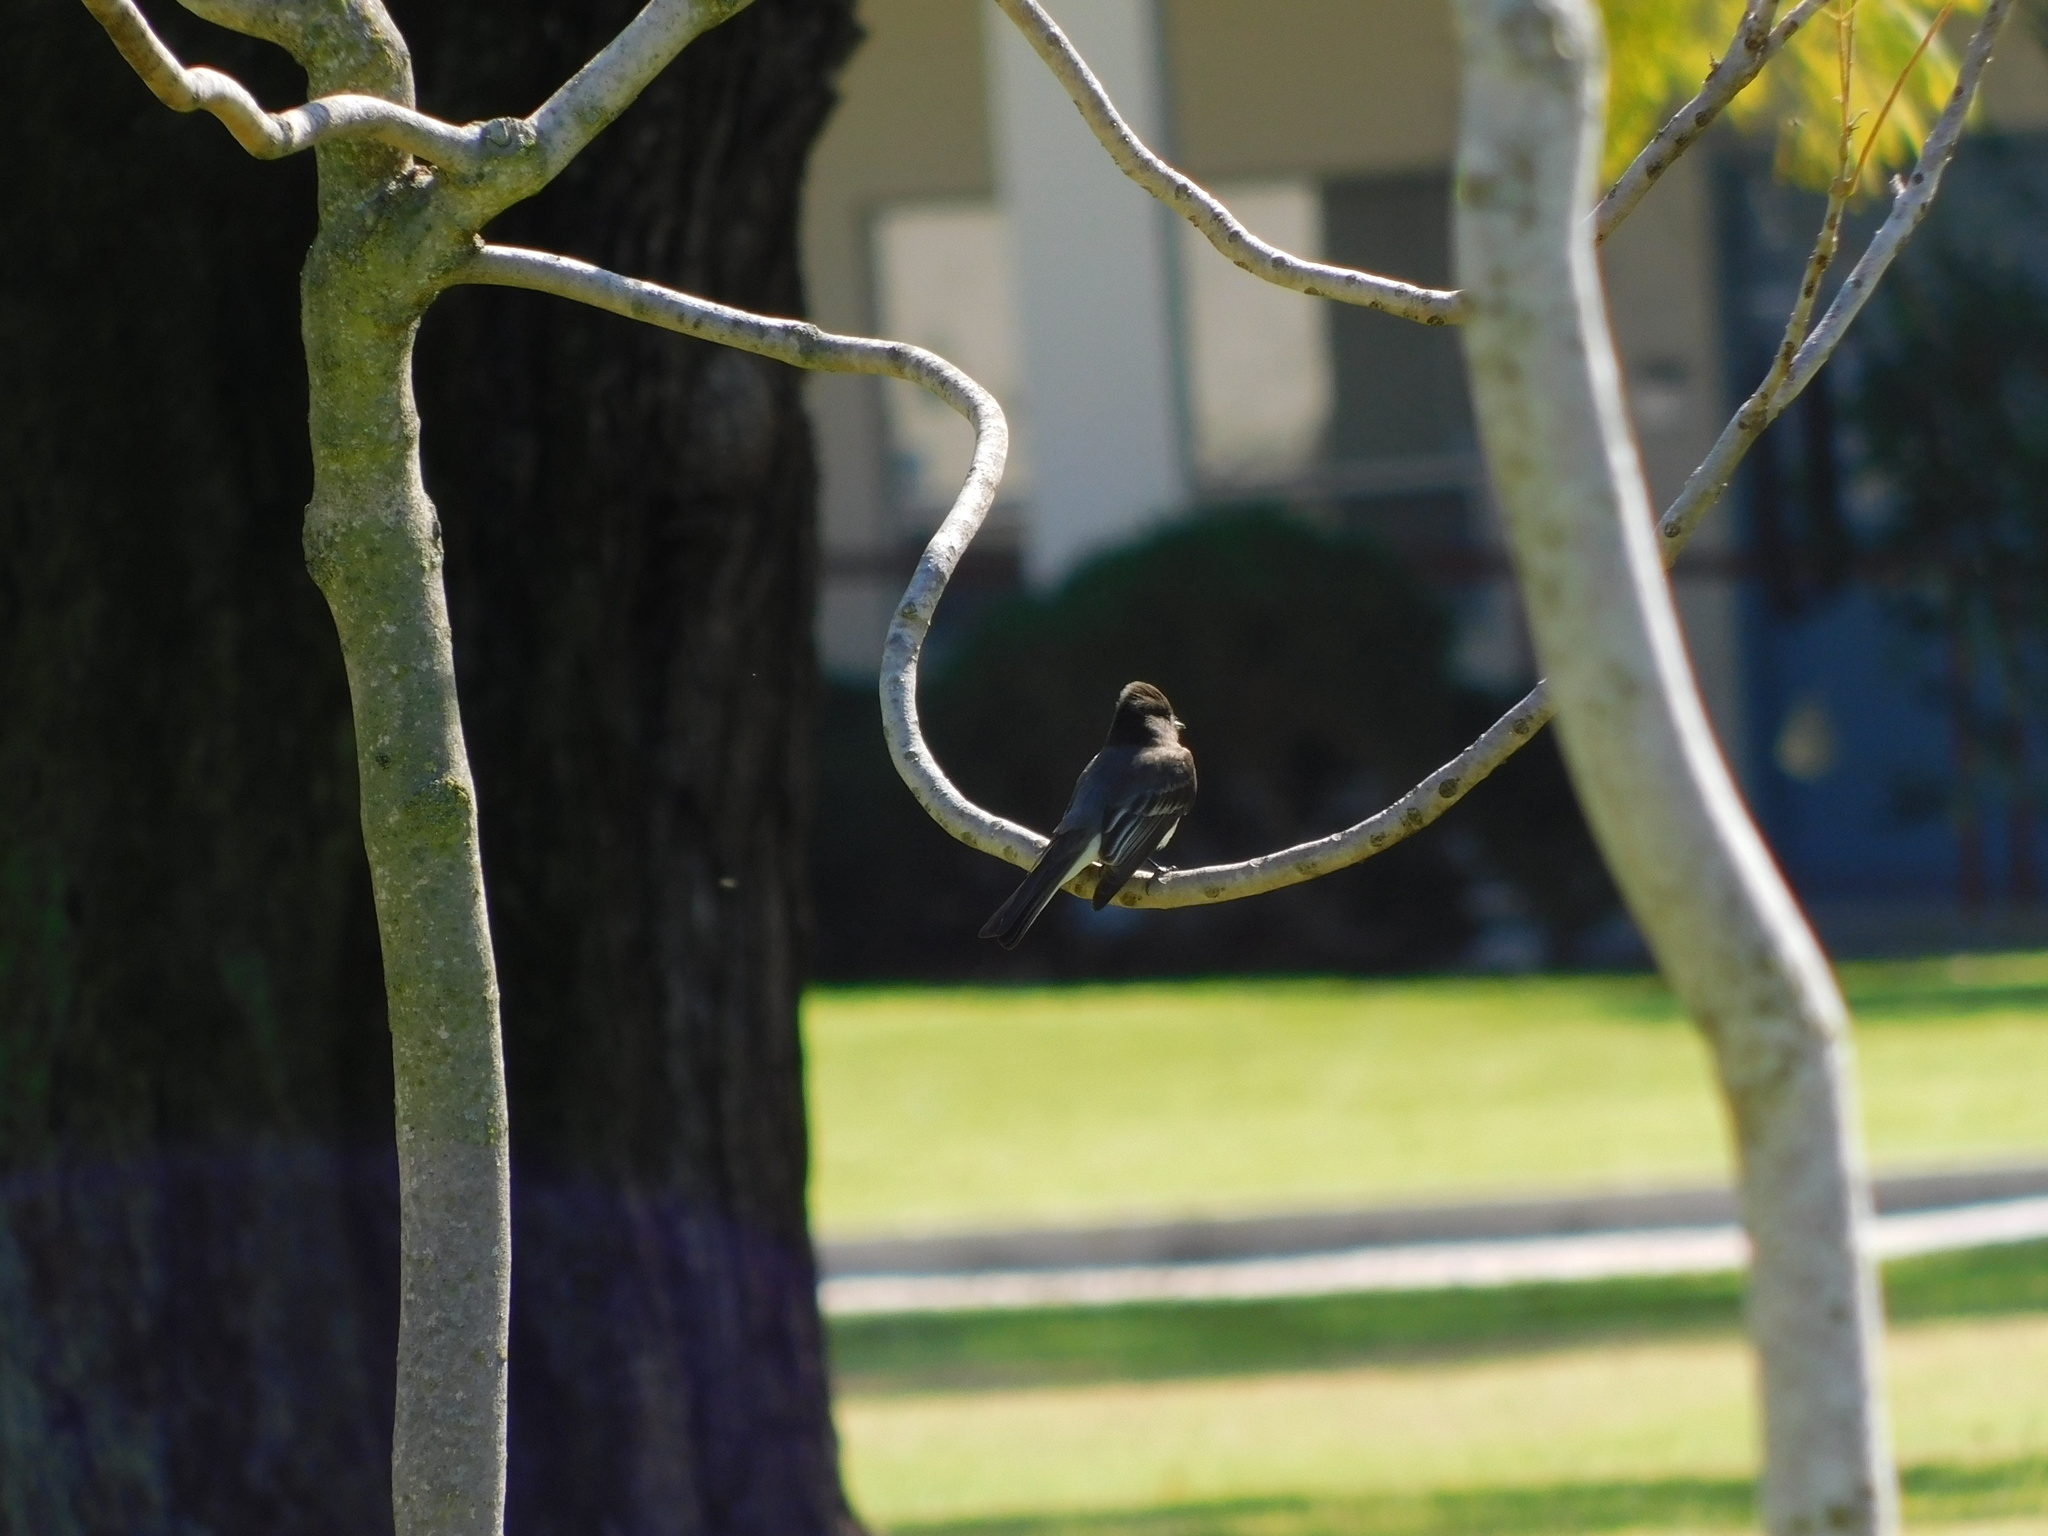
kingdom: Animalia
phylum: Chordata
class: Aves
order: Passeriformes
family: Tyrannidae
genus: Sayornis
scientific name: Sayornis nigricans
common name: Black phoebe
